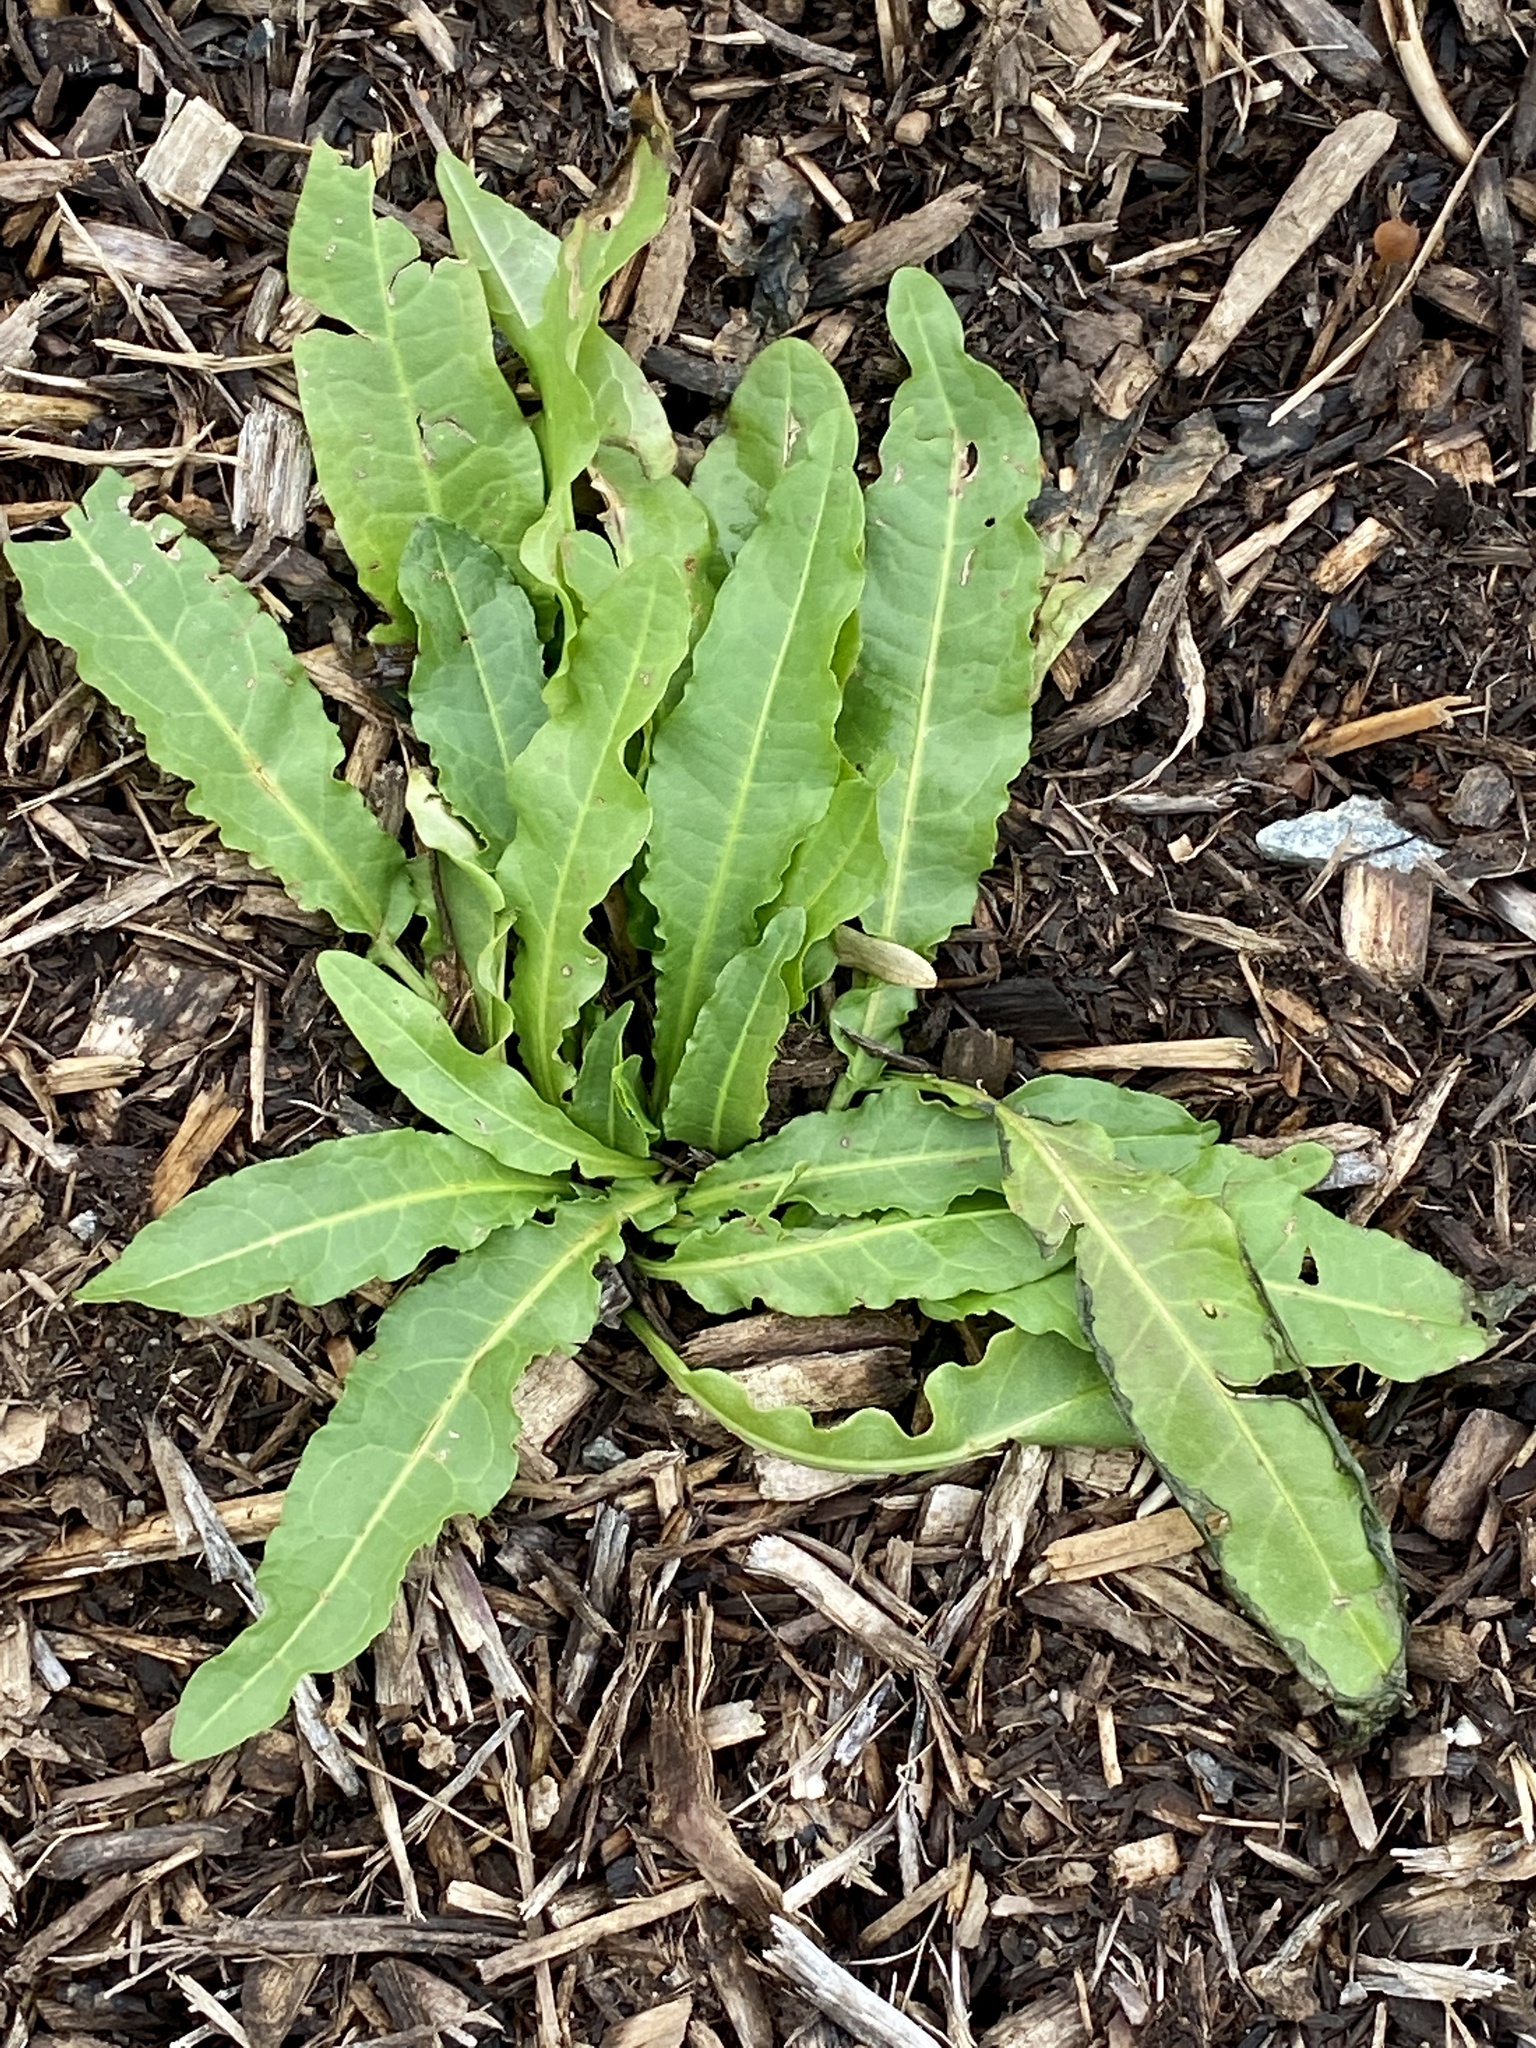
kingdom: Plantae
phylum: Tracheophyta
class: Magnoliopsida
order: Caryophyllales
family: Polygonaceae
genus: Rumex
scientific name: Rumex crispus
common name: Curled dock
